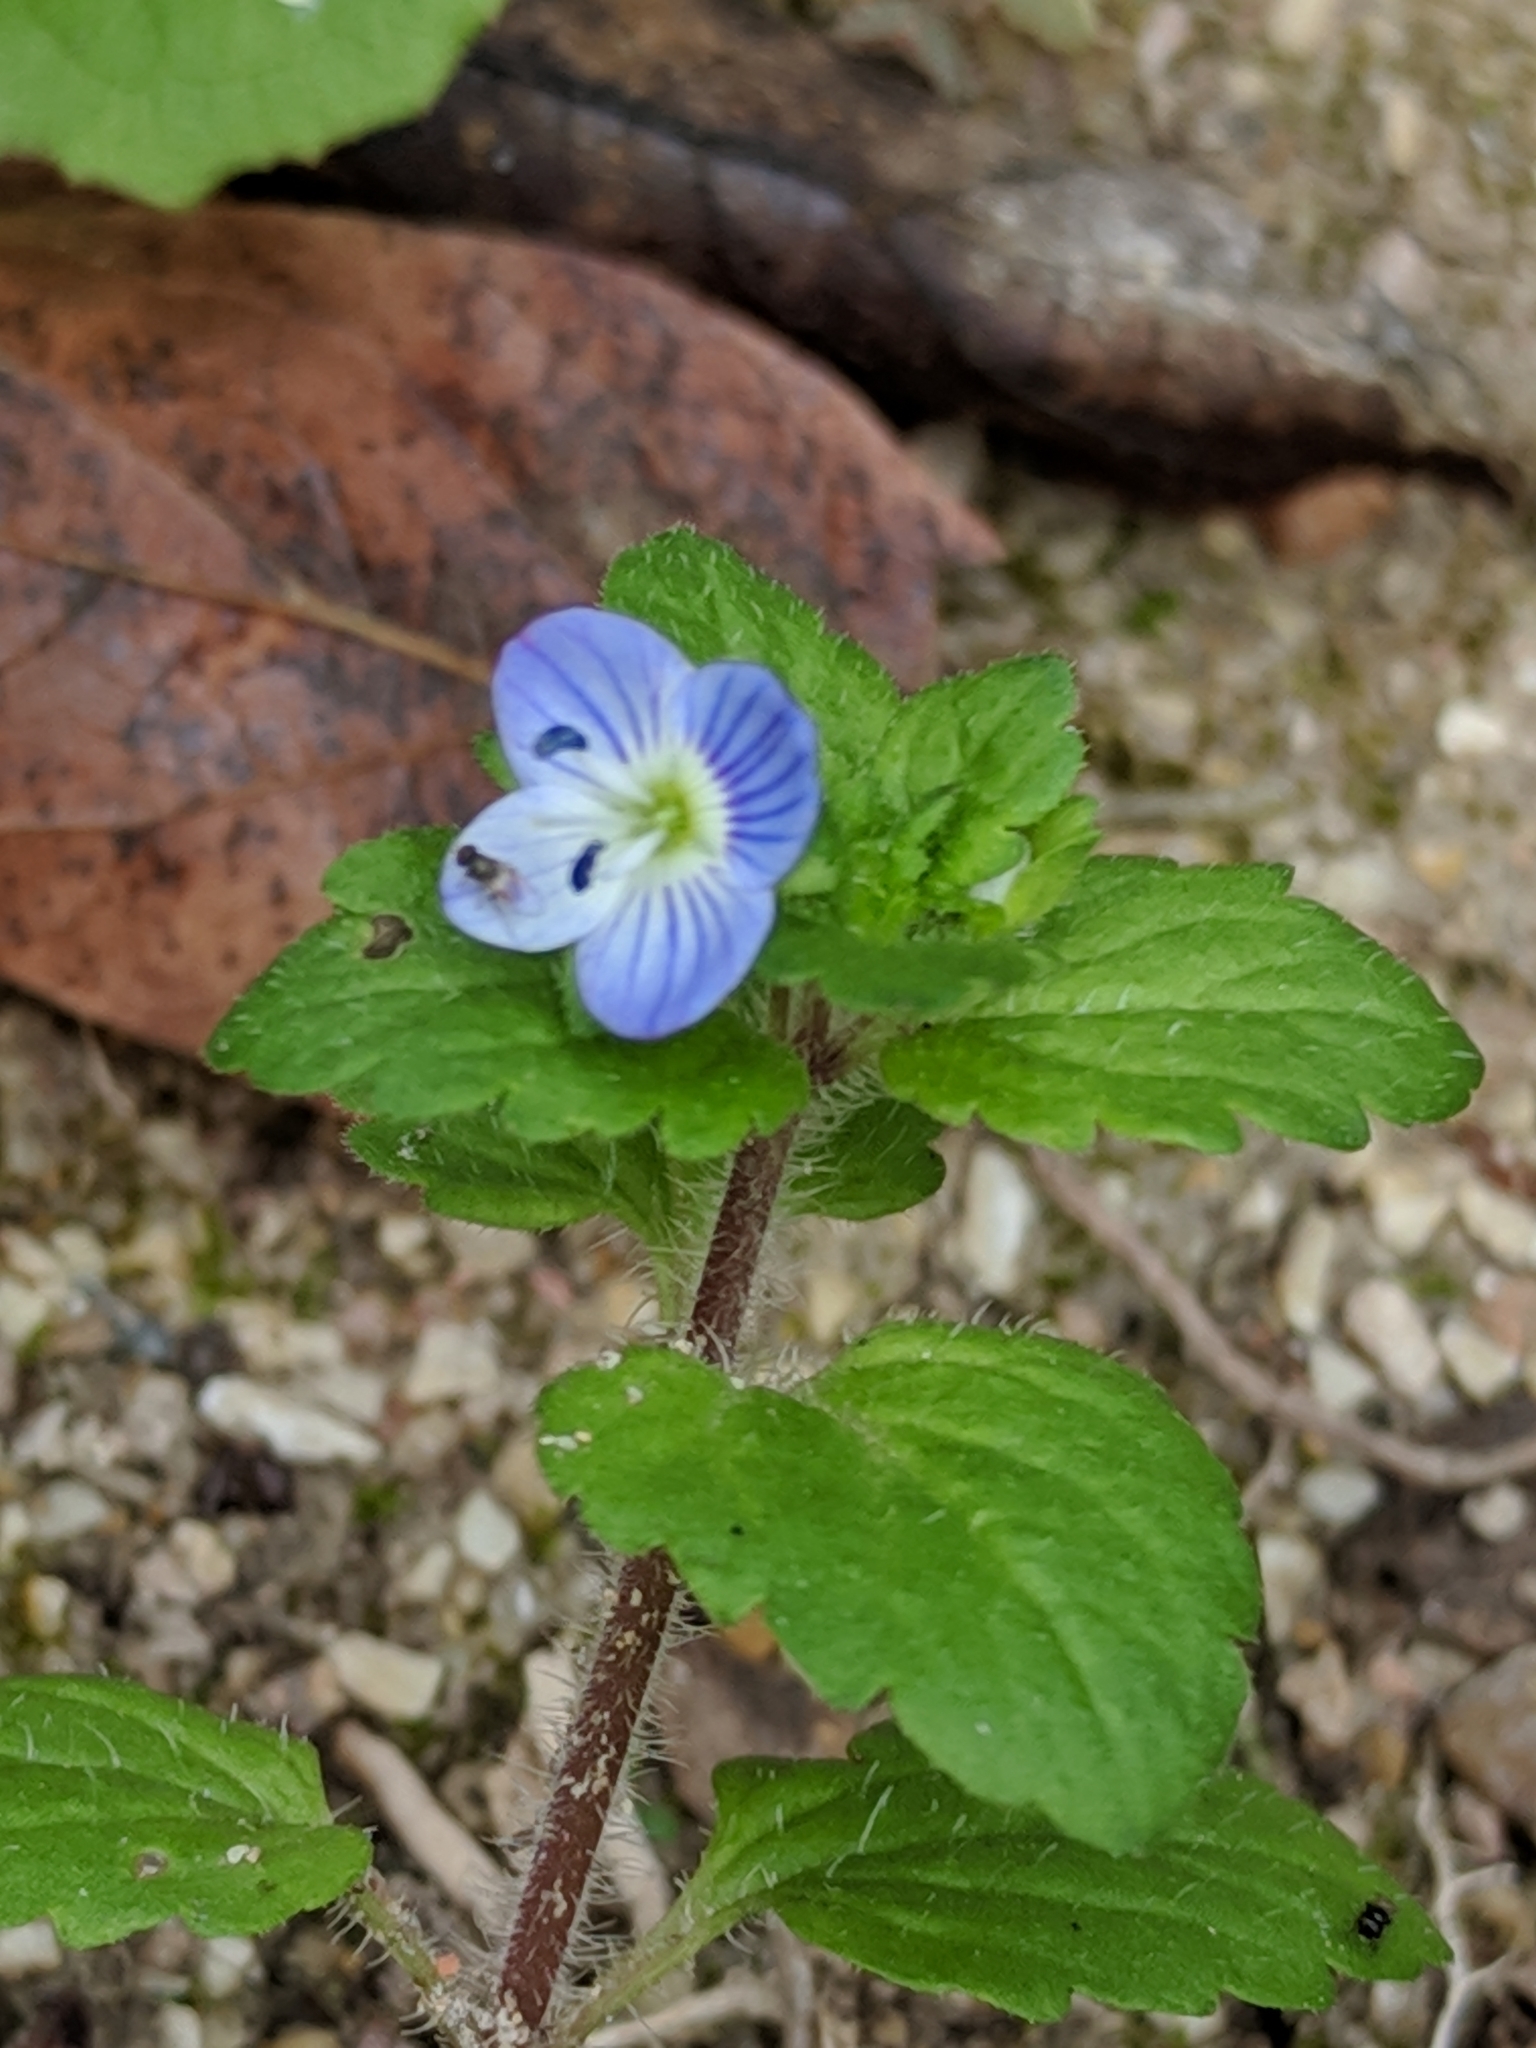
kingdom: Plantae
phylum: Tracheophyta
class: Magnoliopsida
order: Lamiales
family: Plantaginaceae
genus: Veronica
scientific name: Veronica persica
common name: Common field-speedwell
